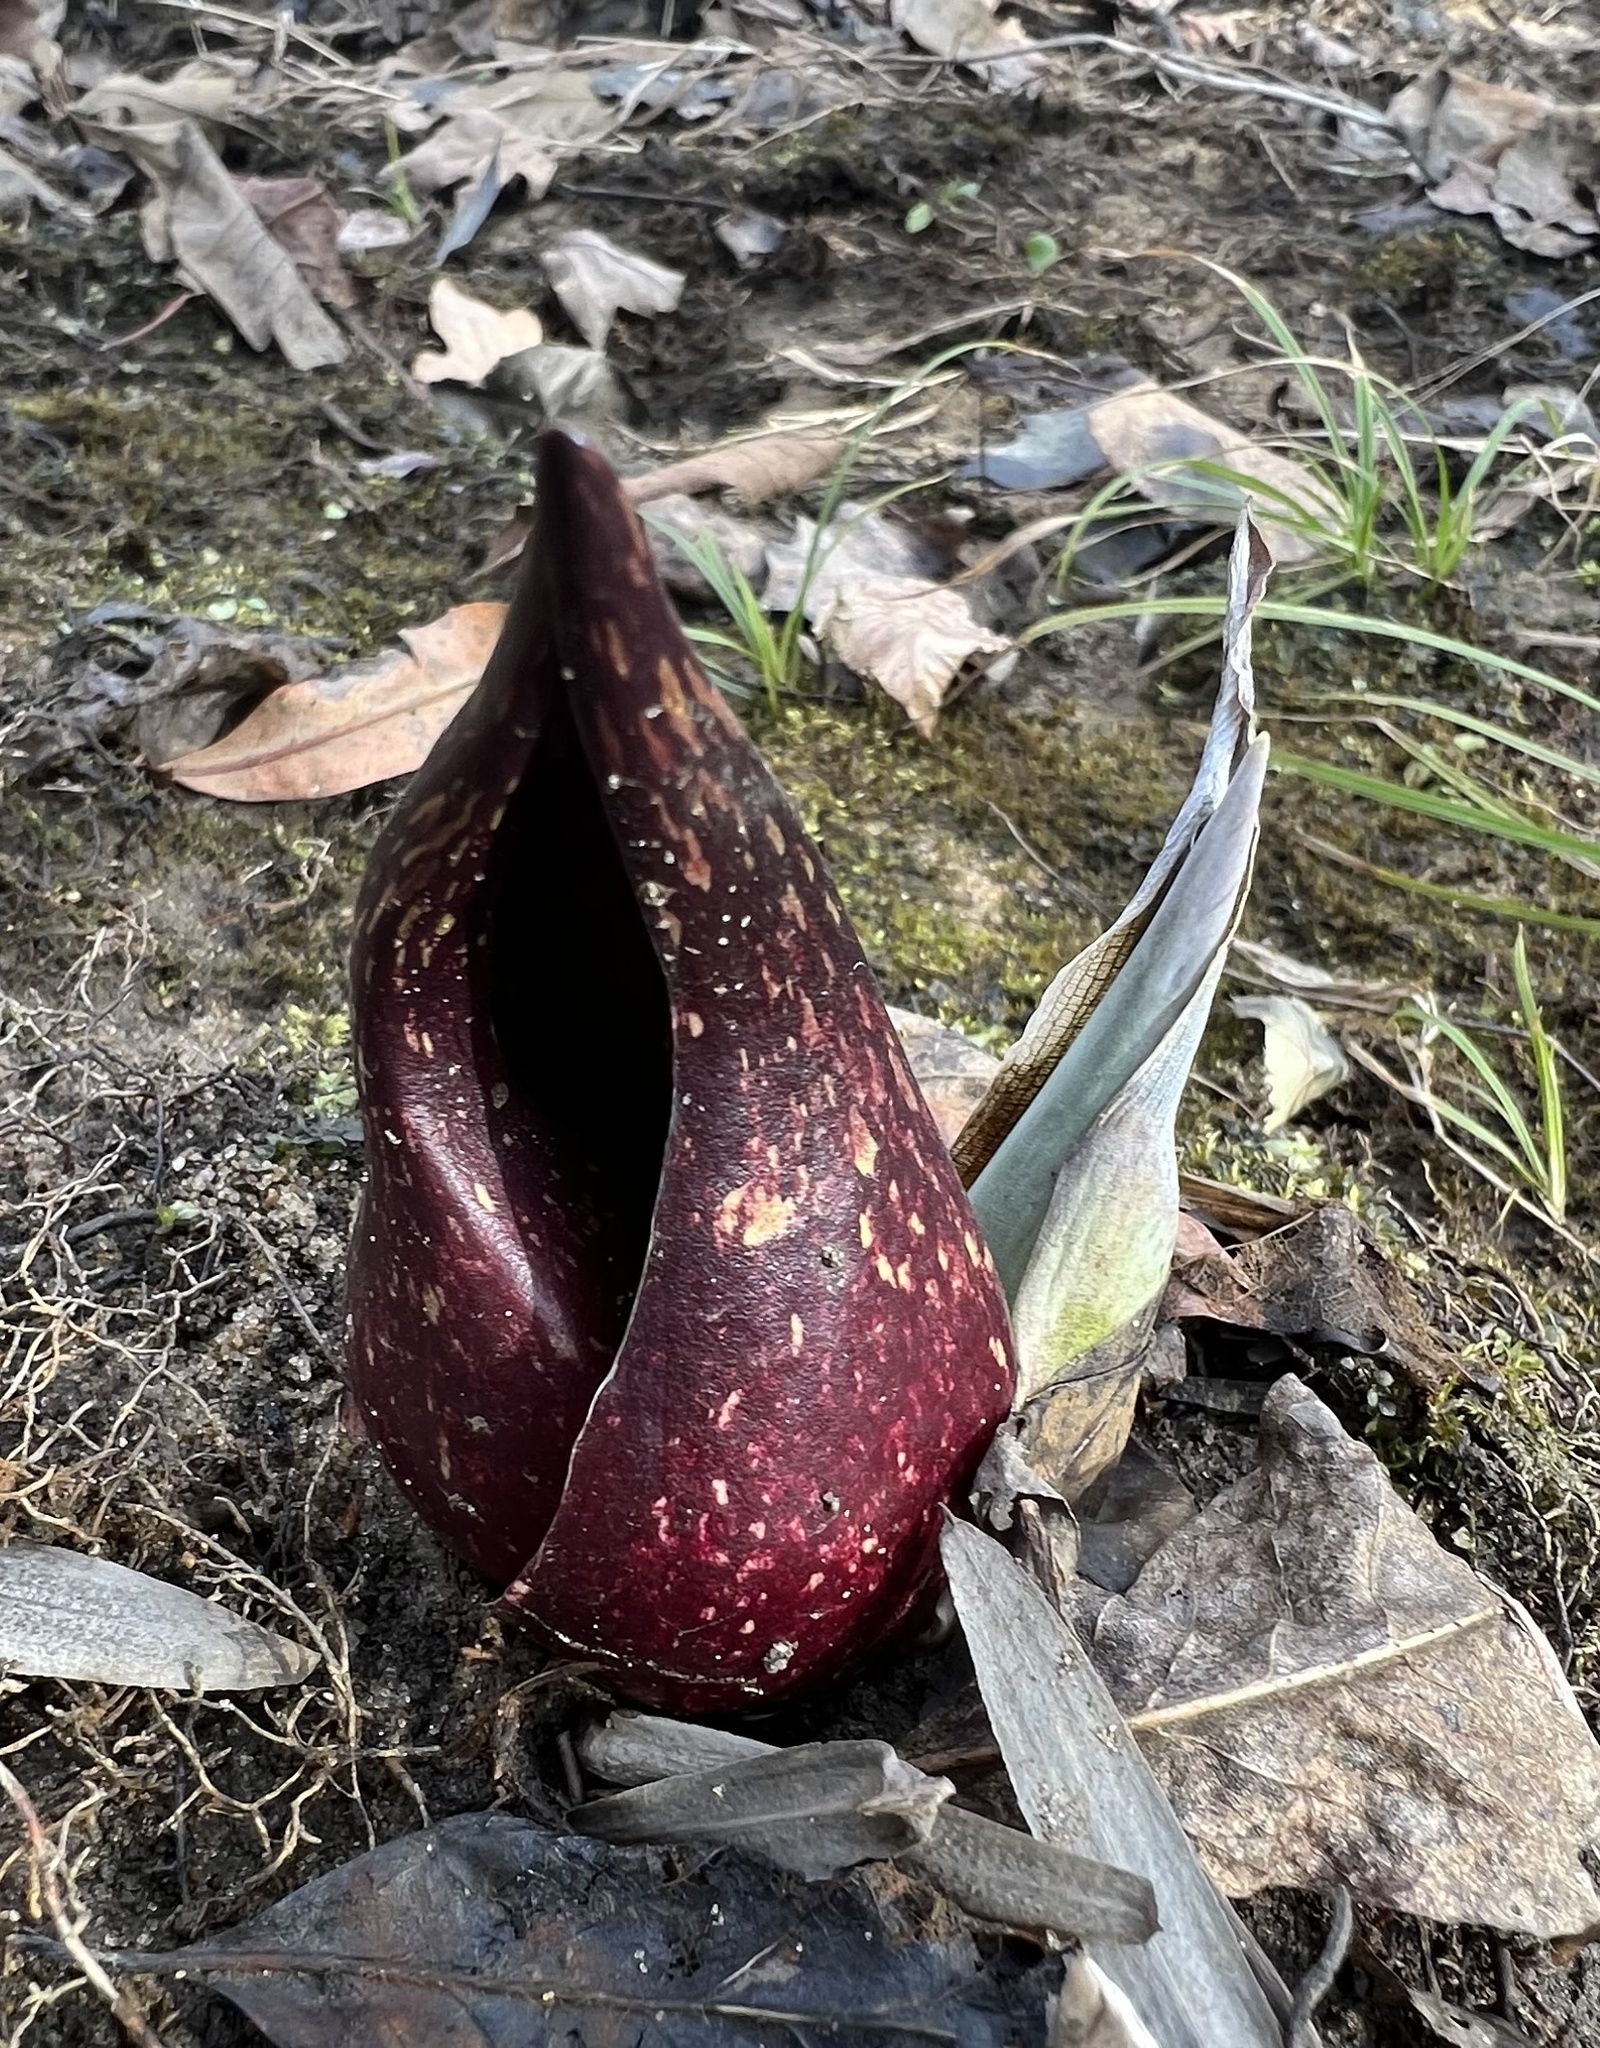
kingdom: Plantae
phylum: Tracheophyta
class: Liliopsida
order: Alismatales
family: Araceae
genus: Symplocarpus
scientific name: Symplocarpus foetidus
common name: Eastern skunk cabbage
